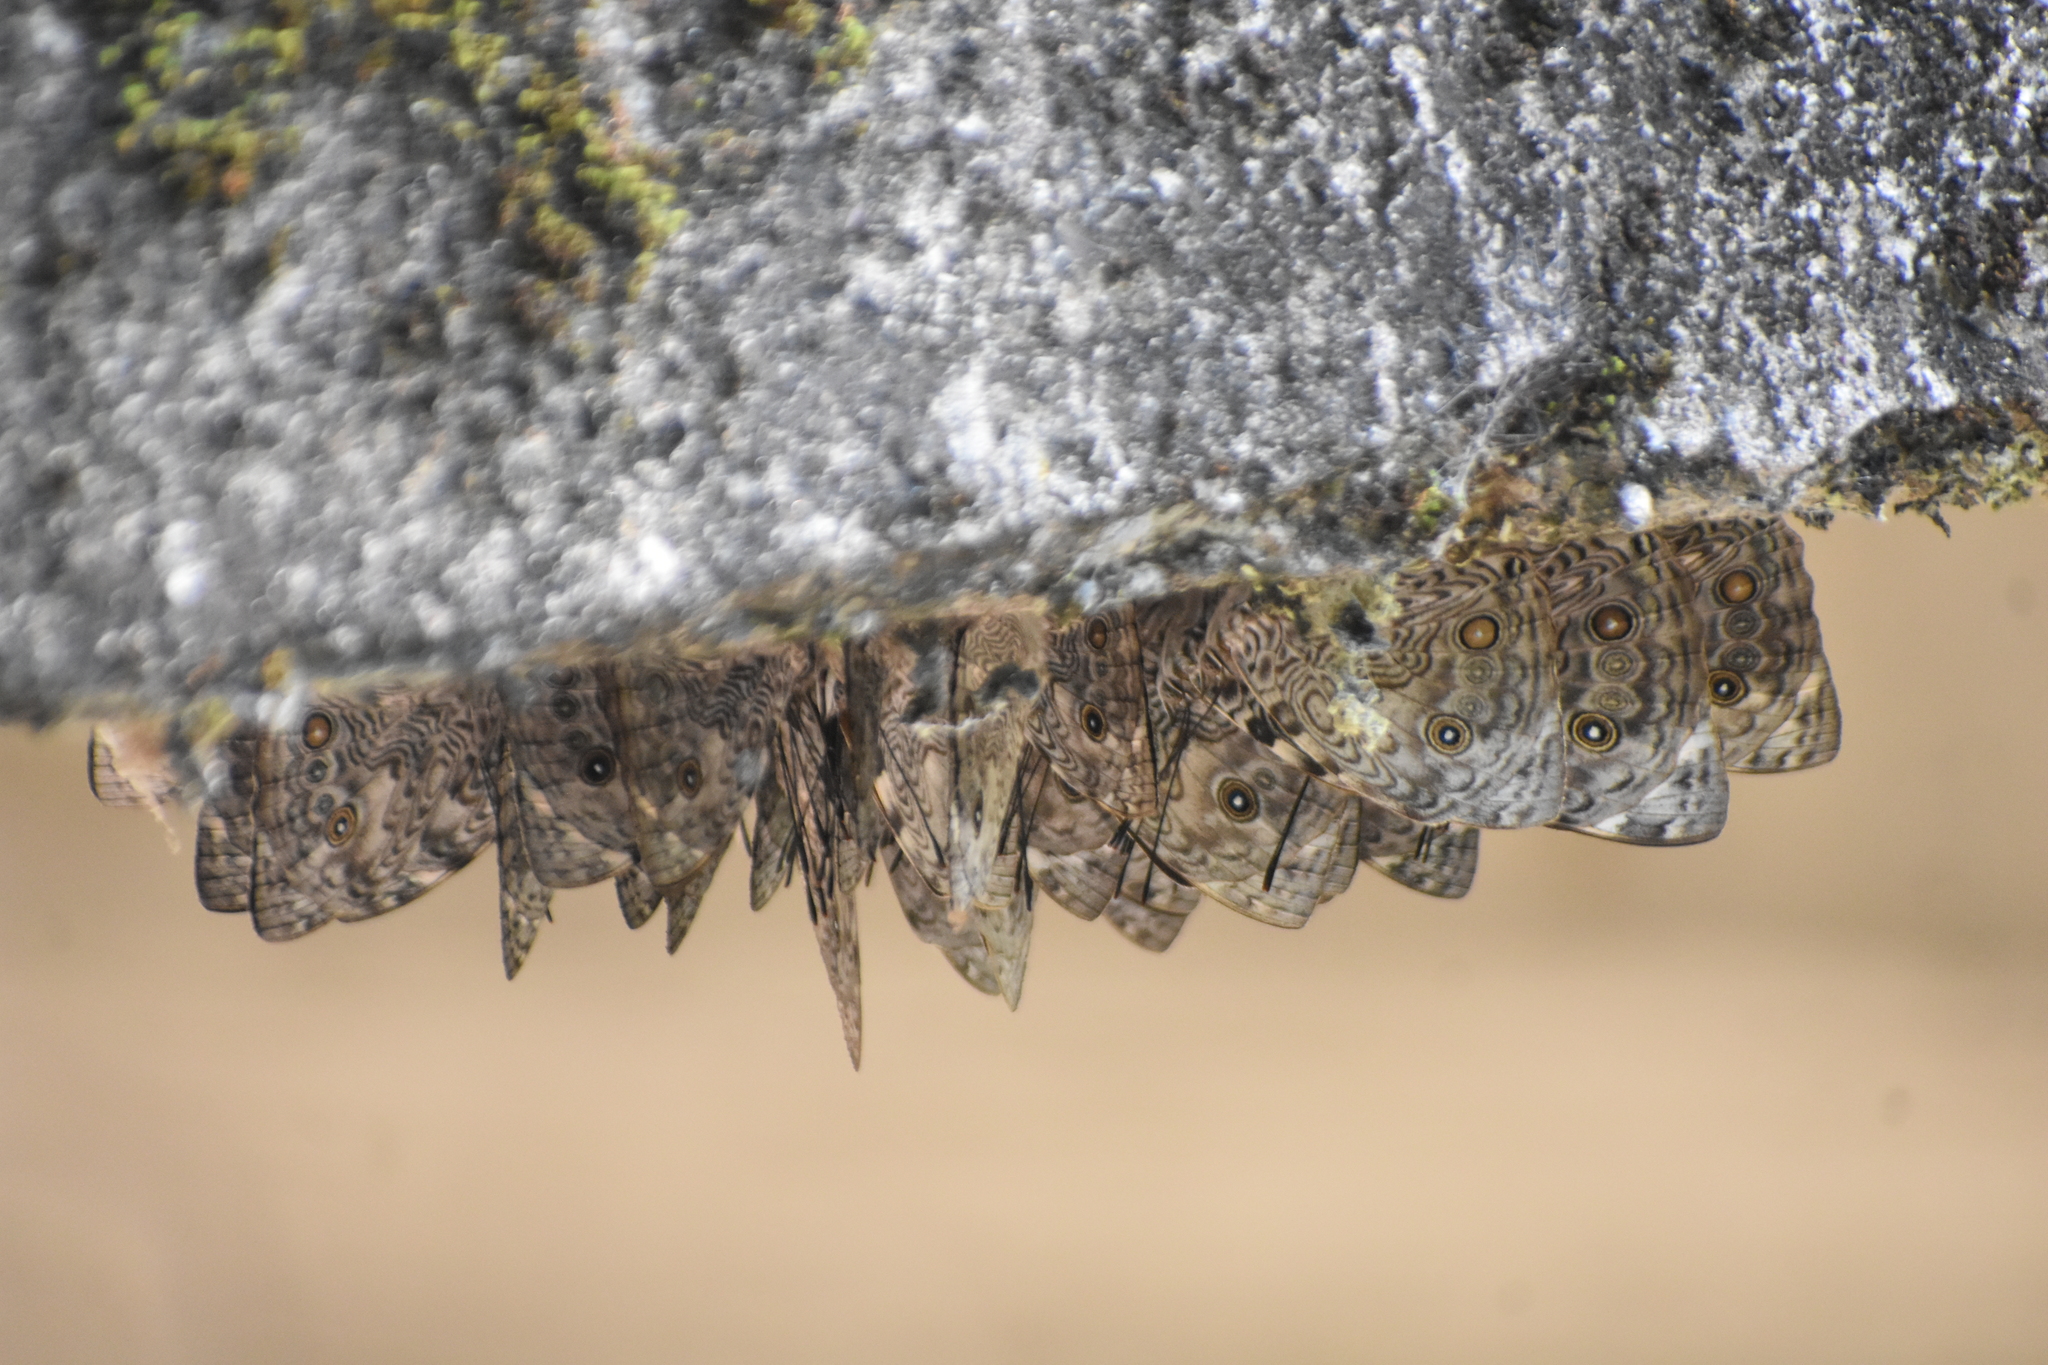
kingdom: Animalia
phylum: Arthropoda
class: Insecta
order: Lepidoptera
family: Nymphalidae
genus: Smyrna
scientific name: Smyrna karwinskii
